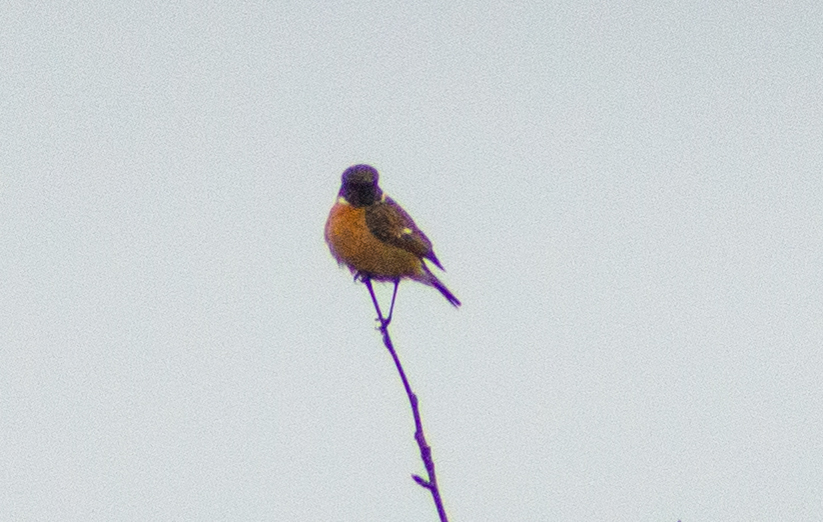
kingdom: Animalia
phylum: Chordata
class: Aves
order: Passeriformes
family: Muscicapidae
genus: Saxicola
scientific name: Saxicola rubicola
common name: European stonechat
